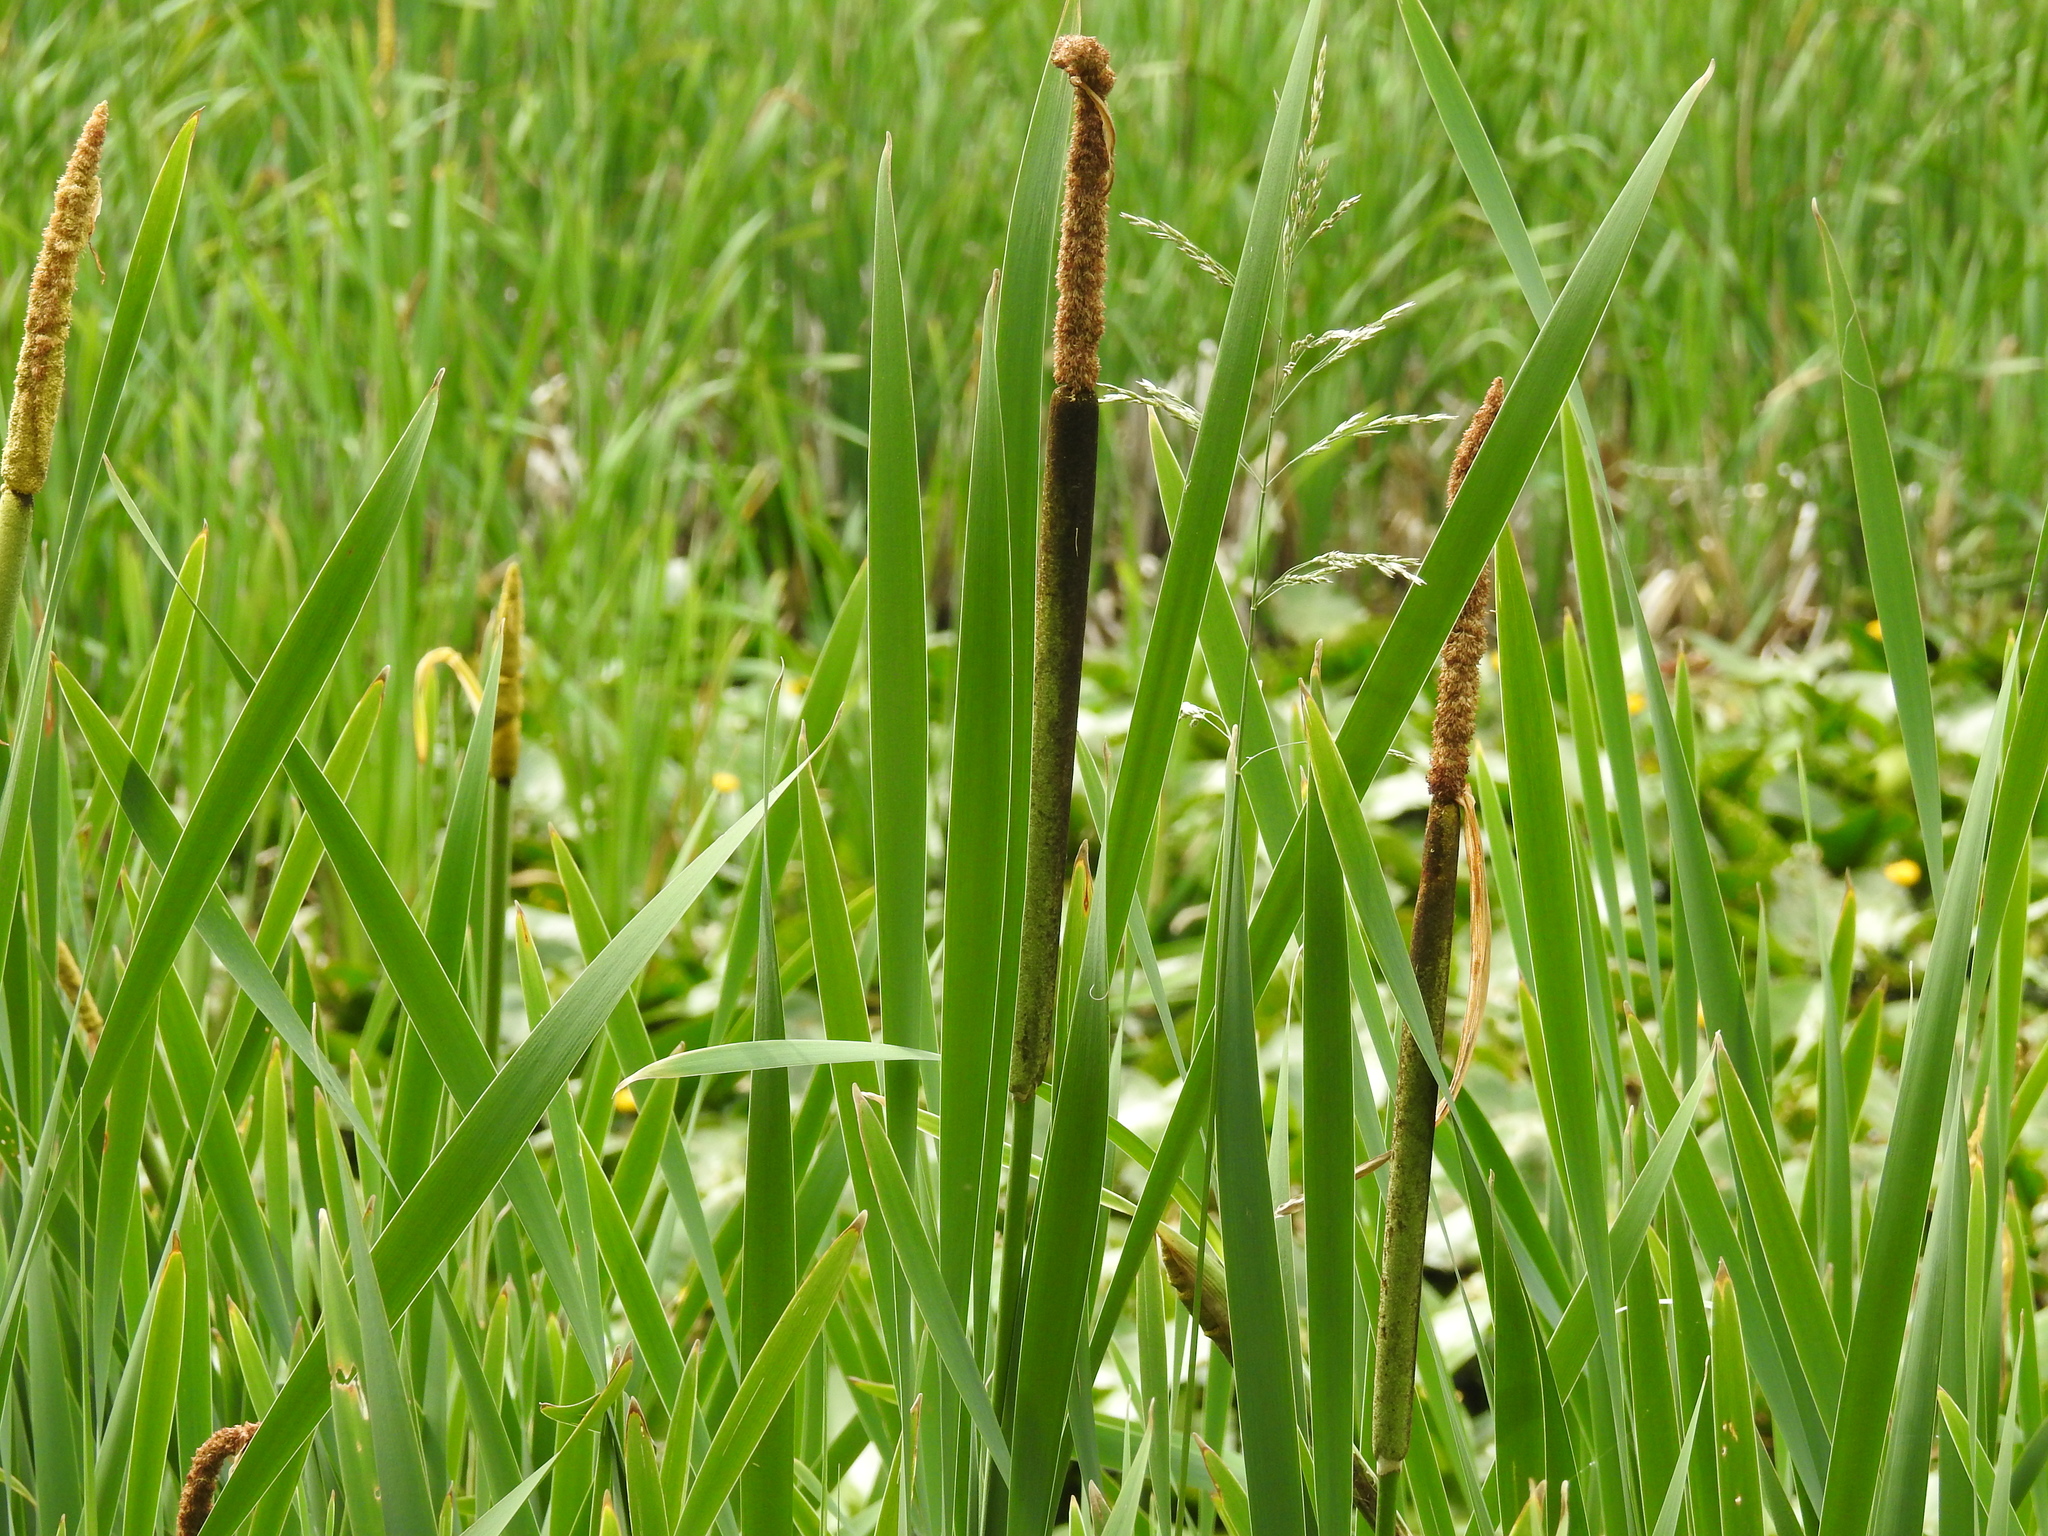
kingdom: Plantae
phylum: Tracheophyta
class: Liliopsida
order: Poales
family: Typhaceae
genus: Typha
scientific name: Typha latifolia
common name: Broadleaf cattail
